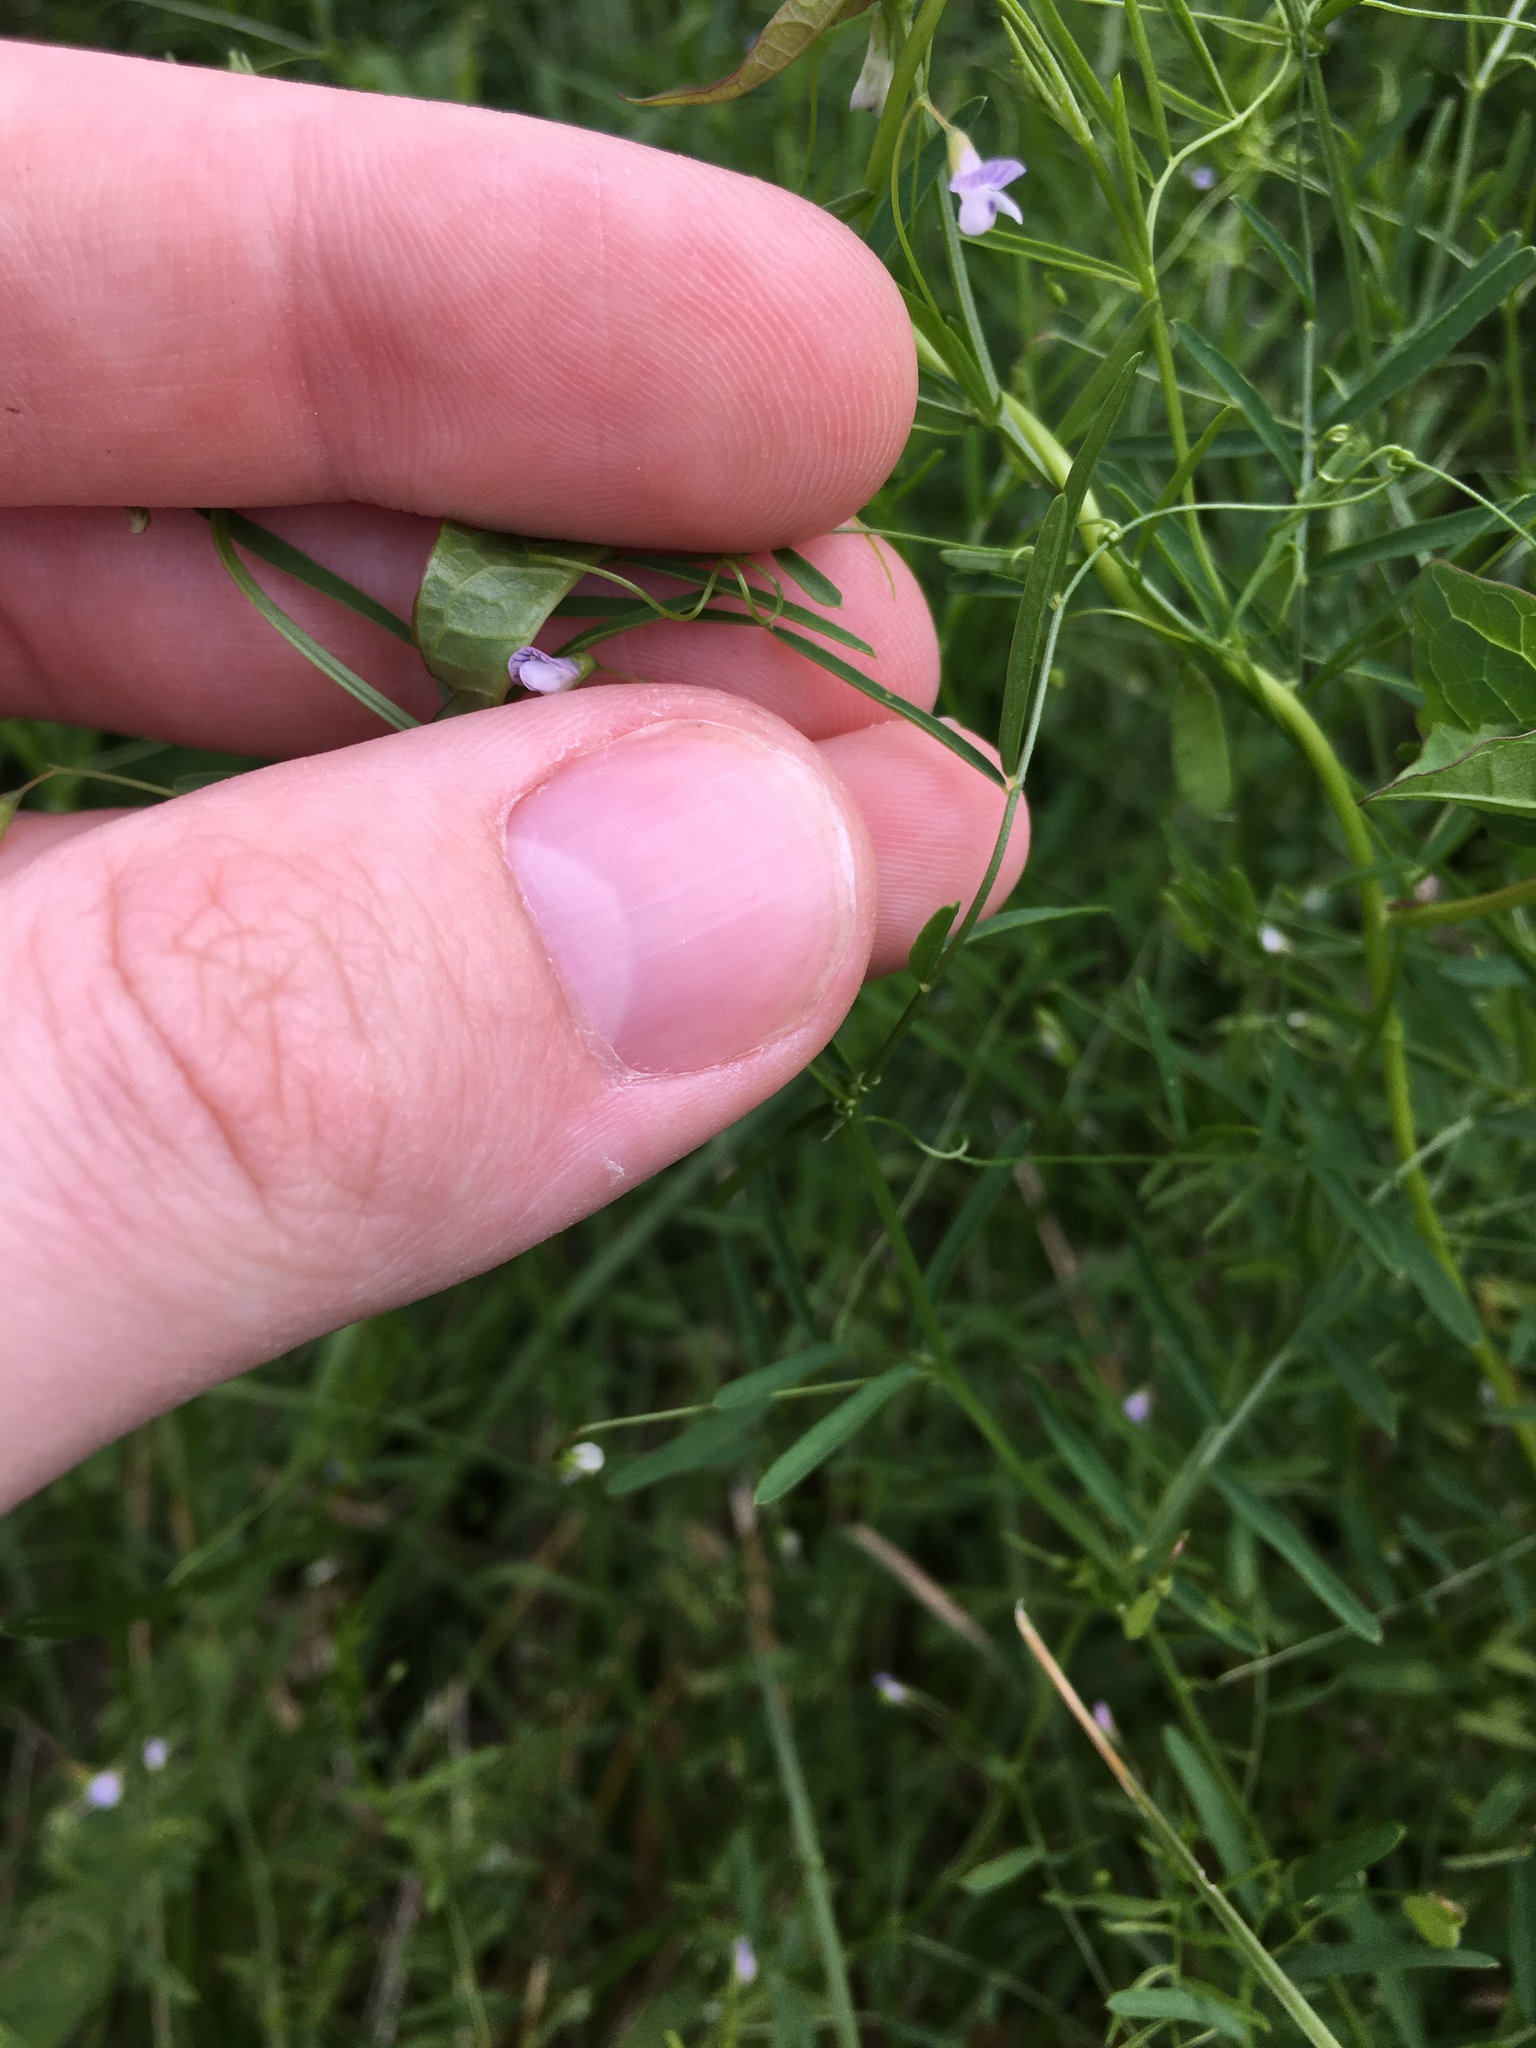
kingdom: Plantae
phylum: Tracheophyta
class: Magnoliopsida
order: Fabales
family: Fabaceae
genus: Vicia
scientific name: Vicia tetrasperma
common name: Smooth tare
